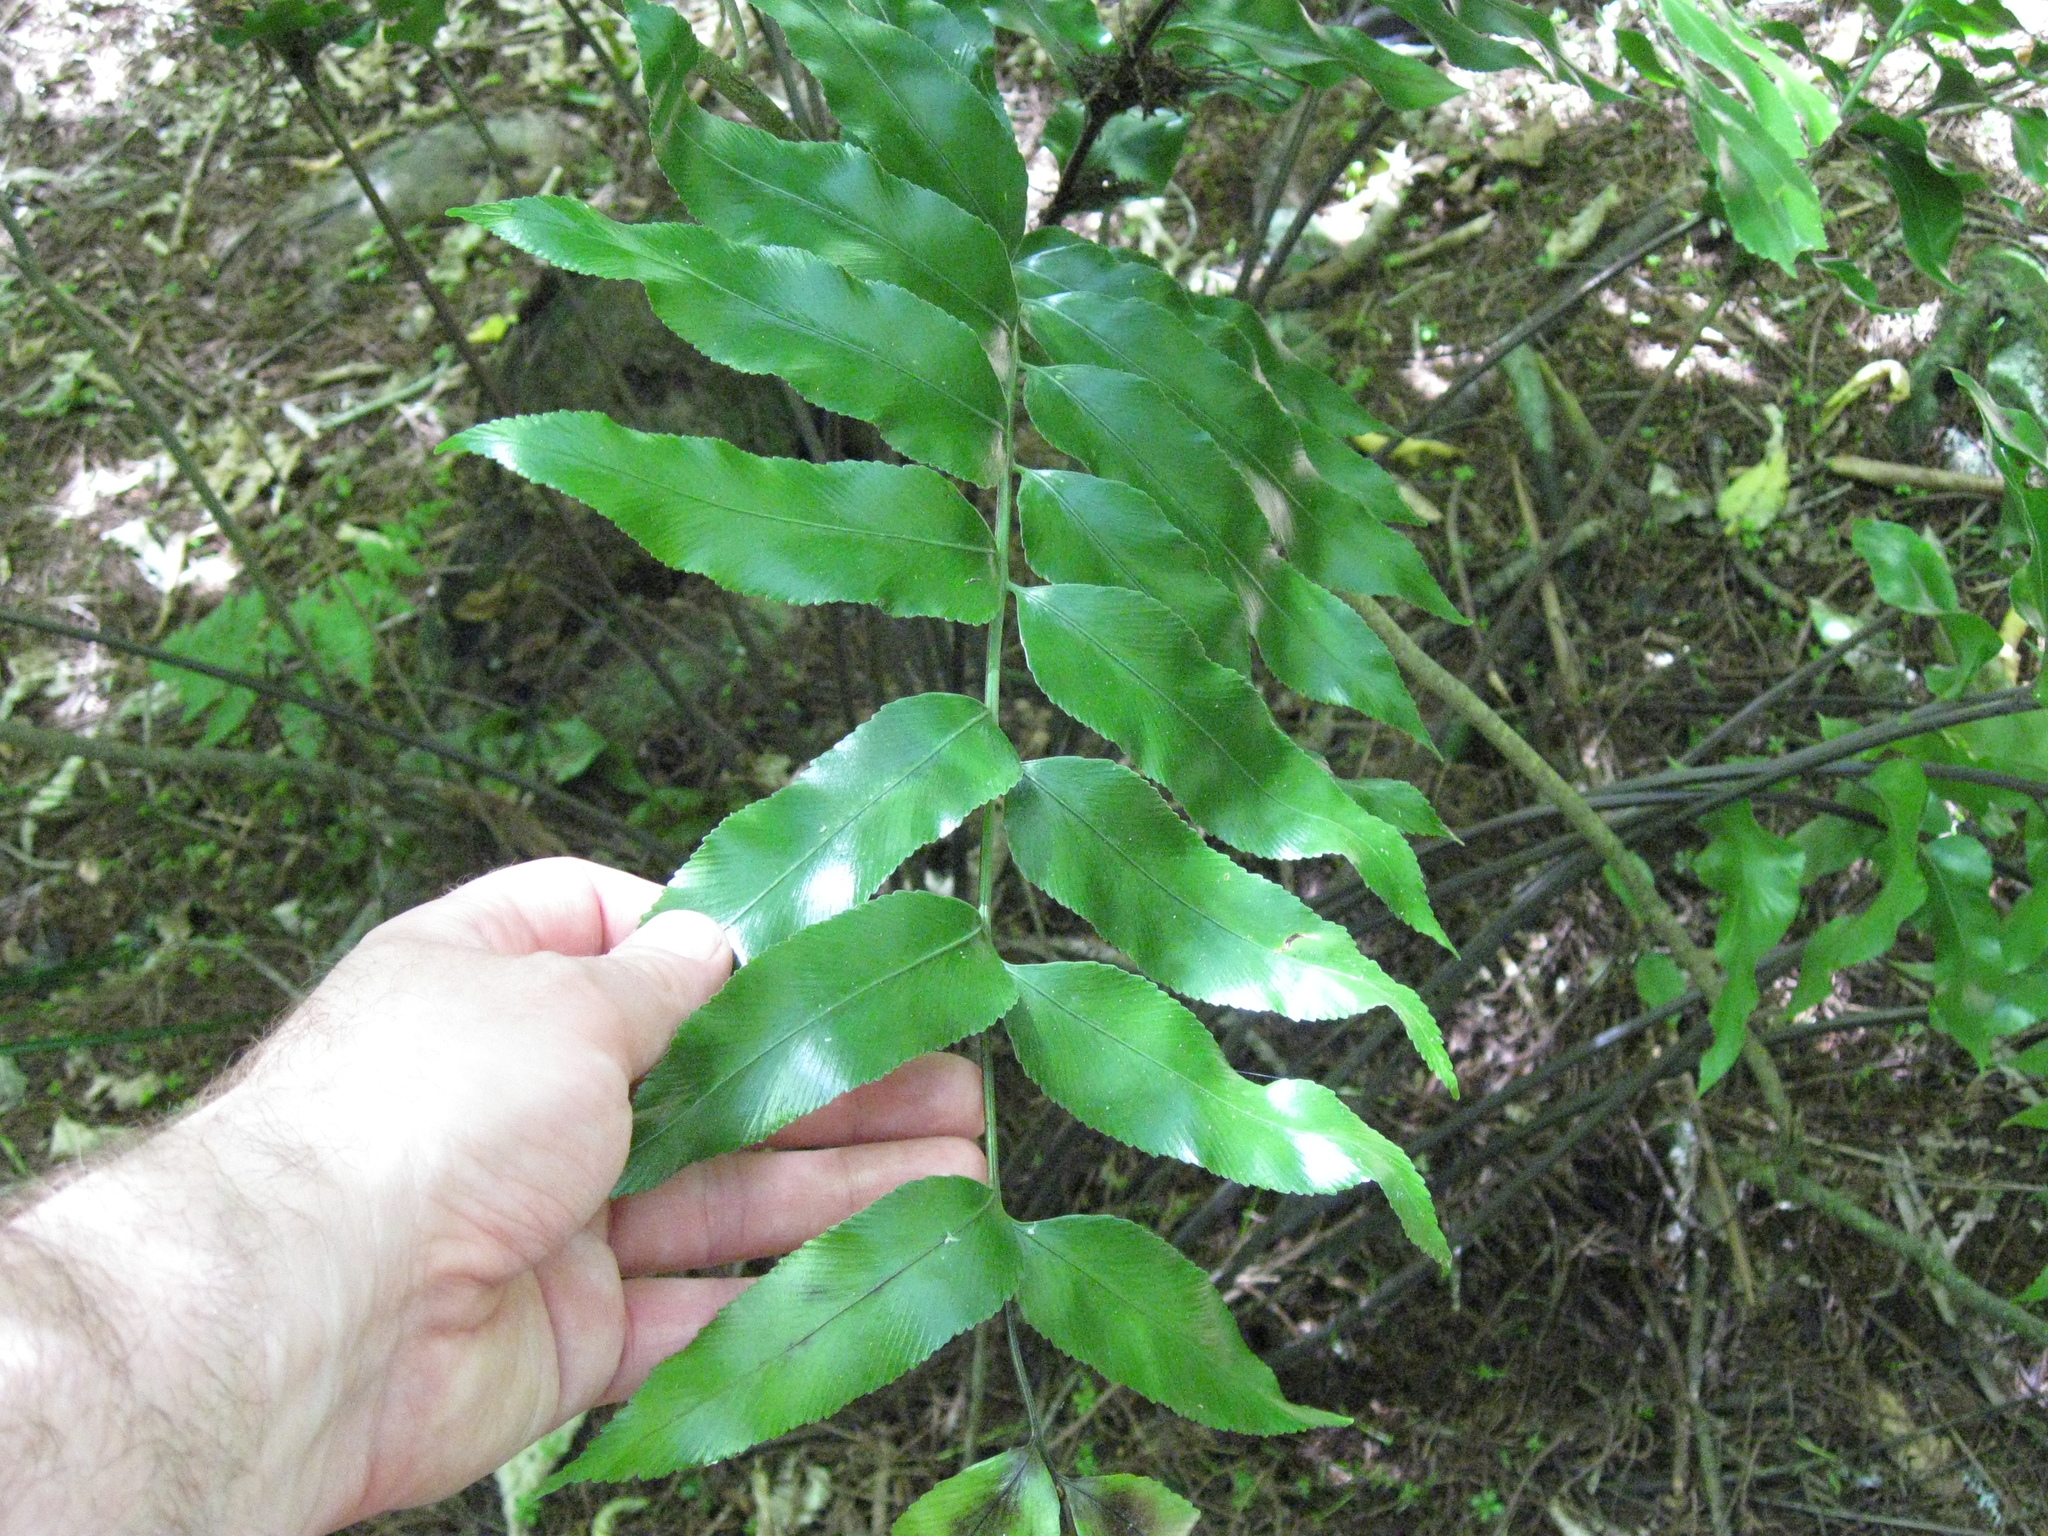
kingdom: Plantae
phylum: Tracheophyta
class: Polypodiopsida
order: Polypodiales
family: Aspleniaceae
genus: Asplenium
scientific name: Asplenium oblongifolium
